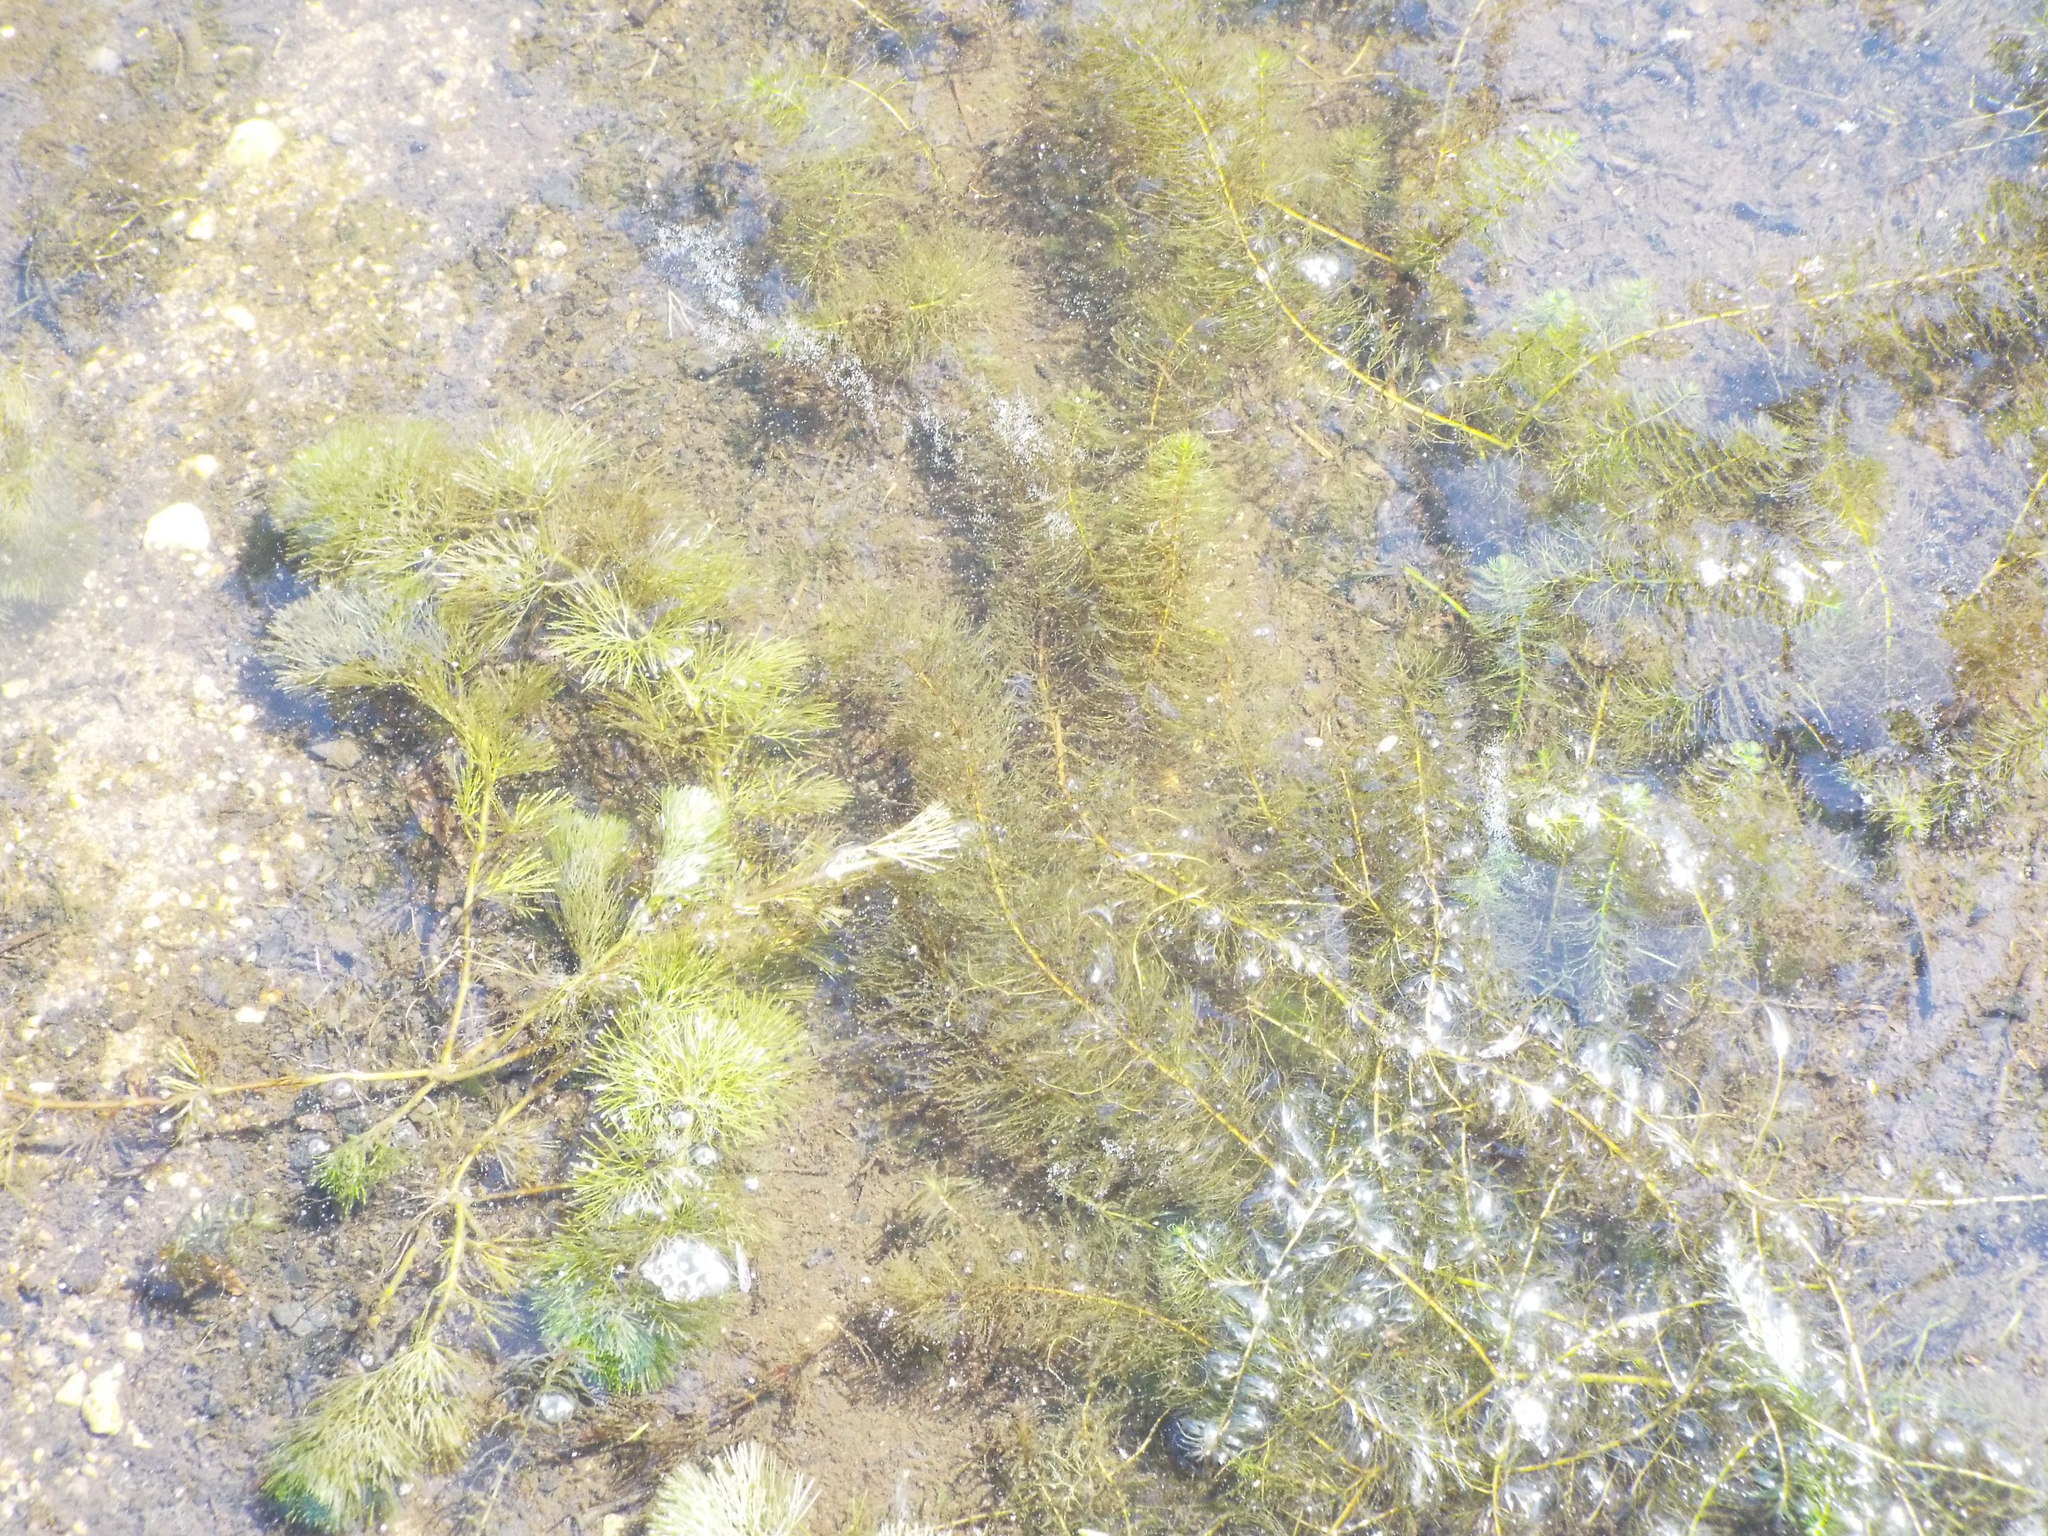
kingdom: Plantae
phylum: Tracheophyta
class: Magnoliopsida
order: Nymphaeales
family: Cabombaceae
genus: Cabomba
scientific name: Cabomba caroliniana
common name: Fanwort
